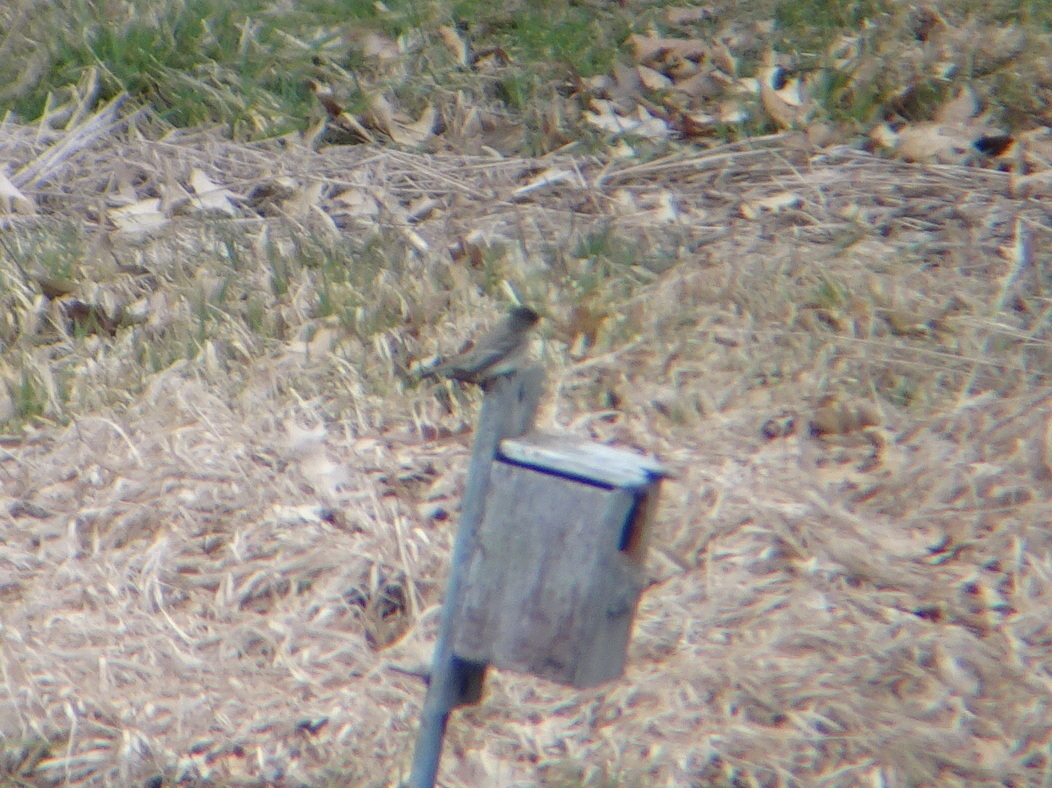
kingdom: Animalia
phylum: Chordata
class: Aves
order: Passeriformes
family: Tyrannidae
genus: Sayornis
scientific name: Sayornis phoebe
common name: Eastern phoebe
